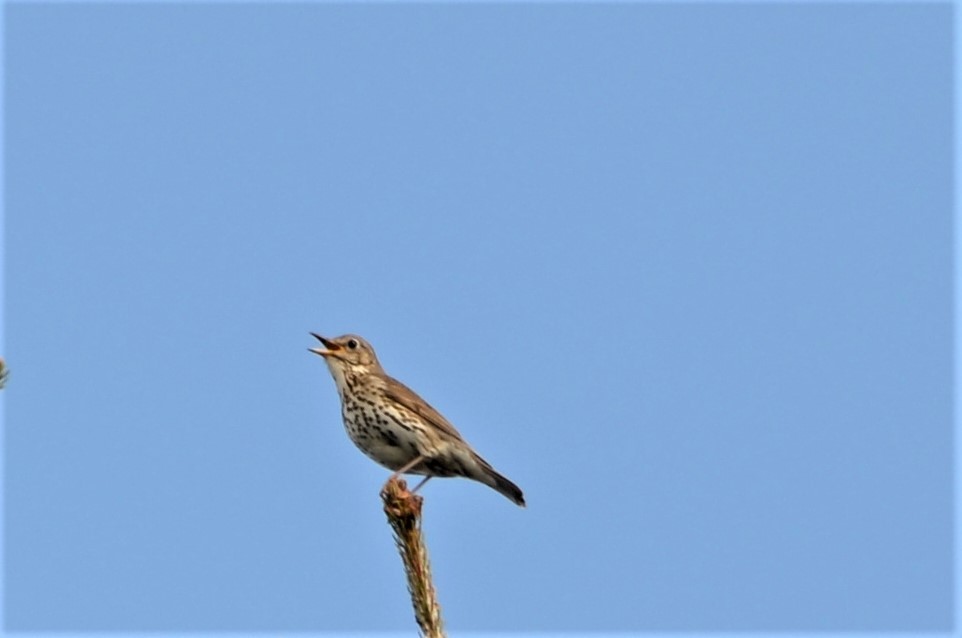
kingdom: Animalia
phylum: Chordata
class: Aves
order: Passeriformes
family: Turdidae
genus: Turdus
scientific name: Turdus philomelos
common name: Song thrush
